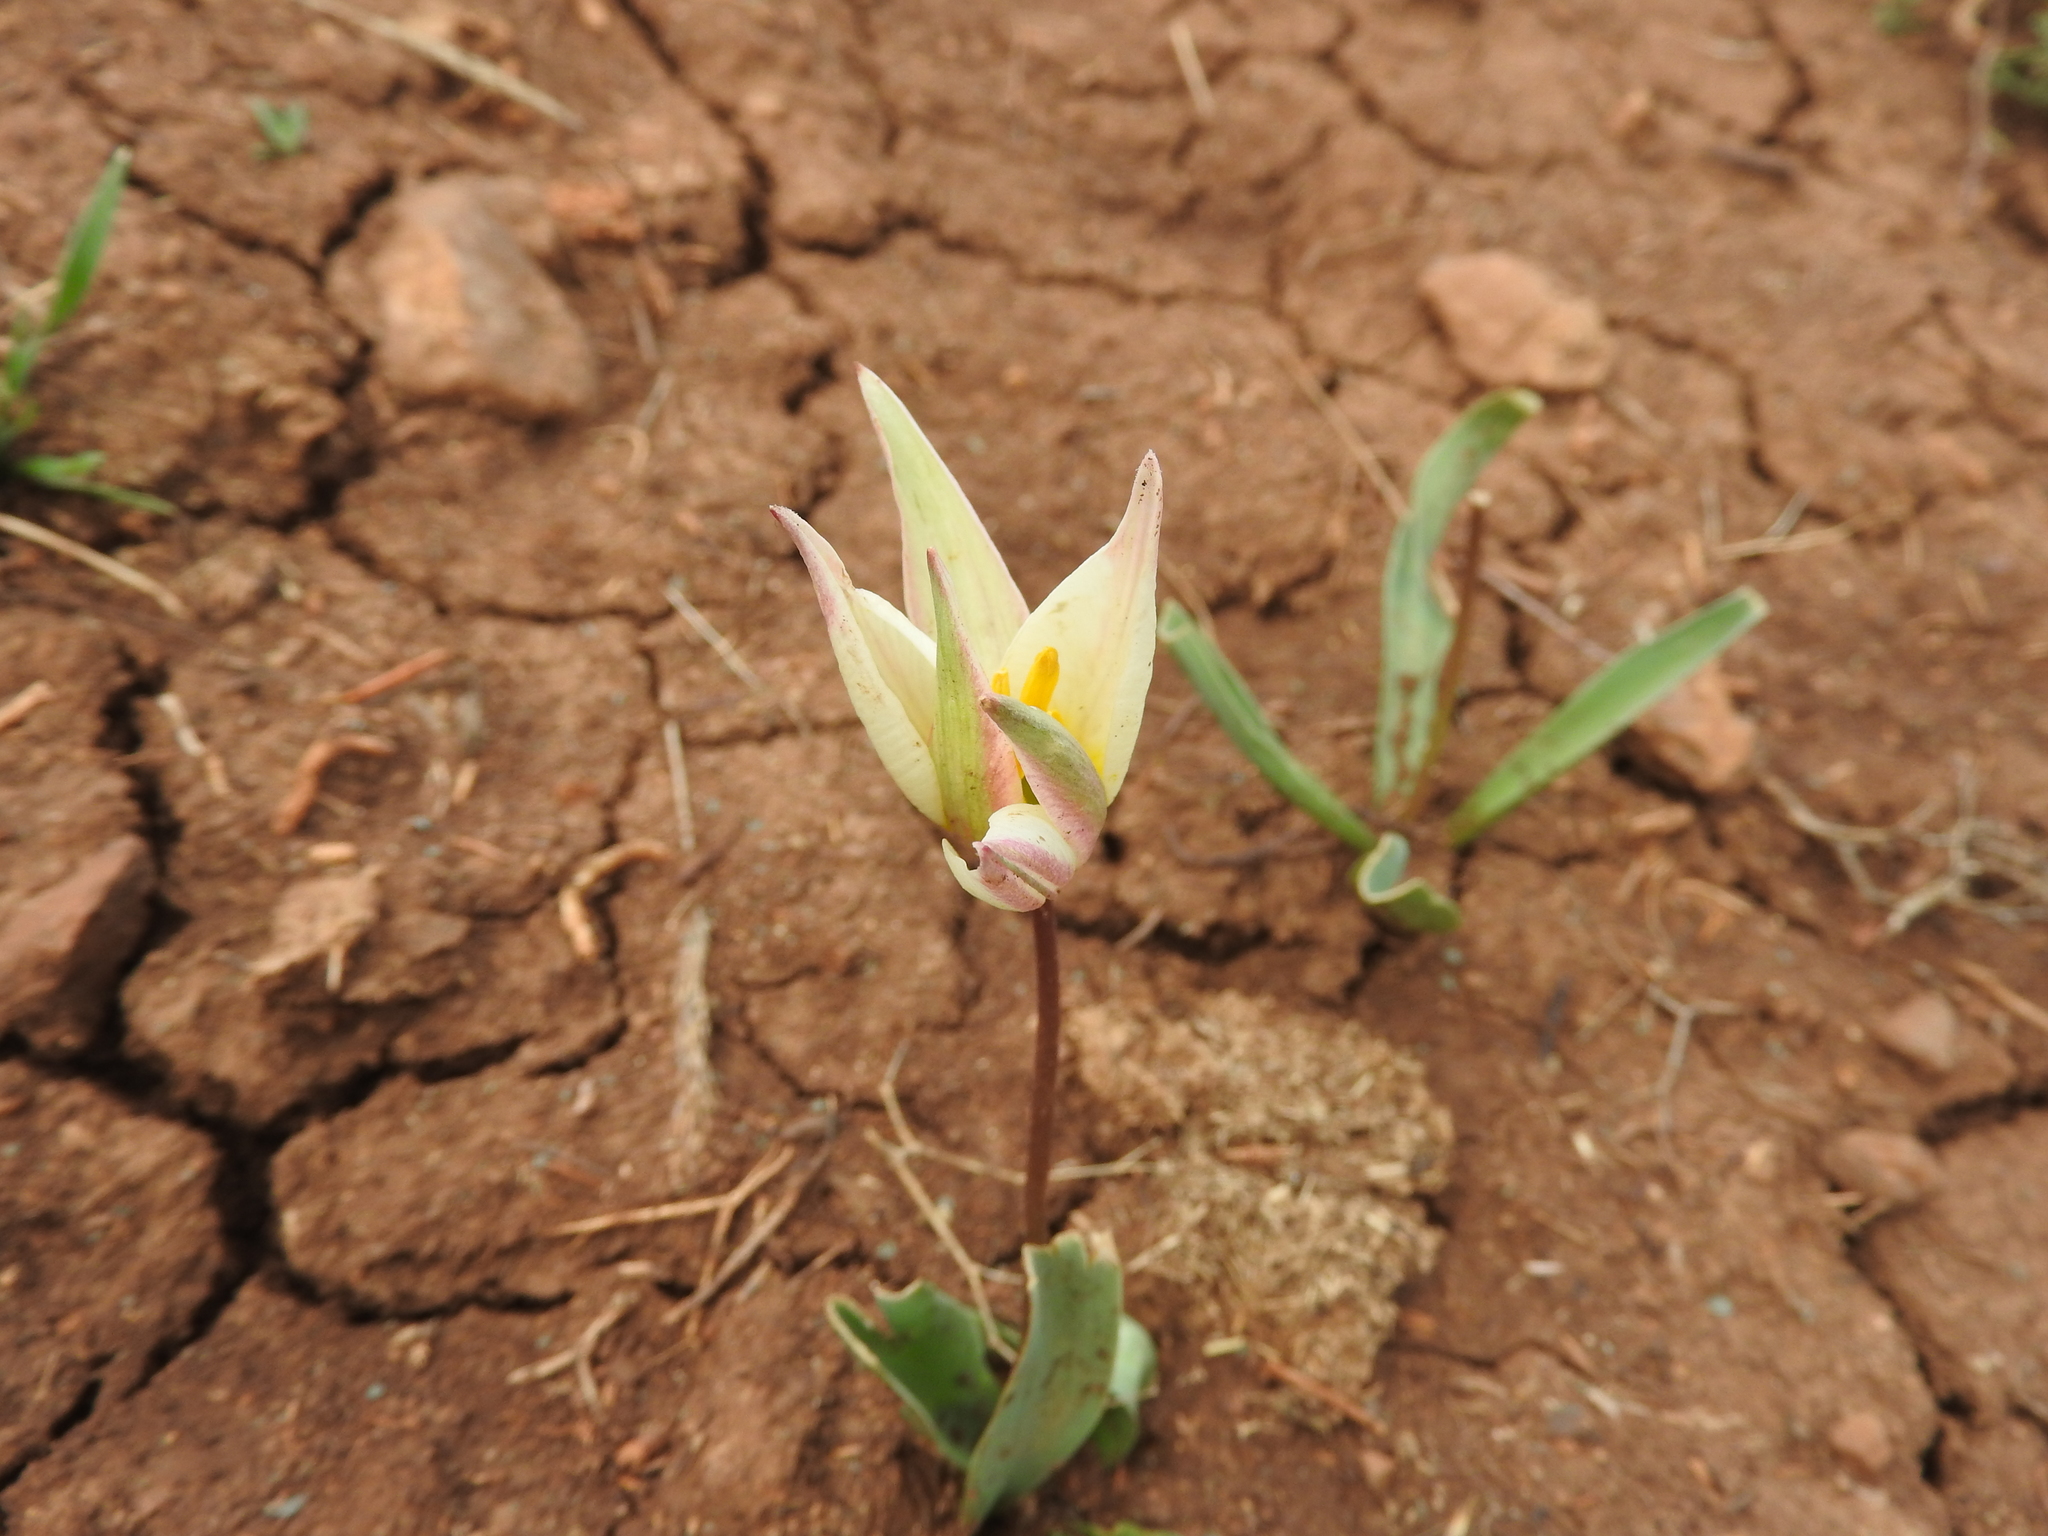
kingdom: Plantae
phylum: Tracheophyta
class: Liliopsida
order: Liliales
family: Liliaceae
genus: Tulipa
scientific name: Tulipa sylvestris
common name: Wild tulip
